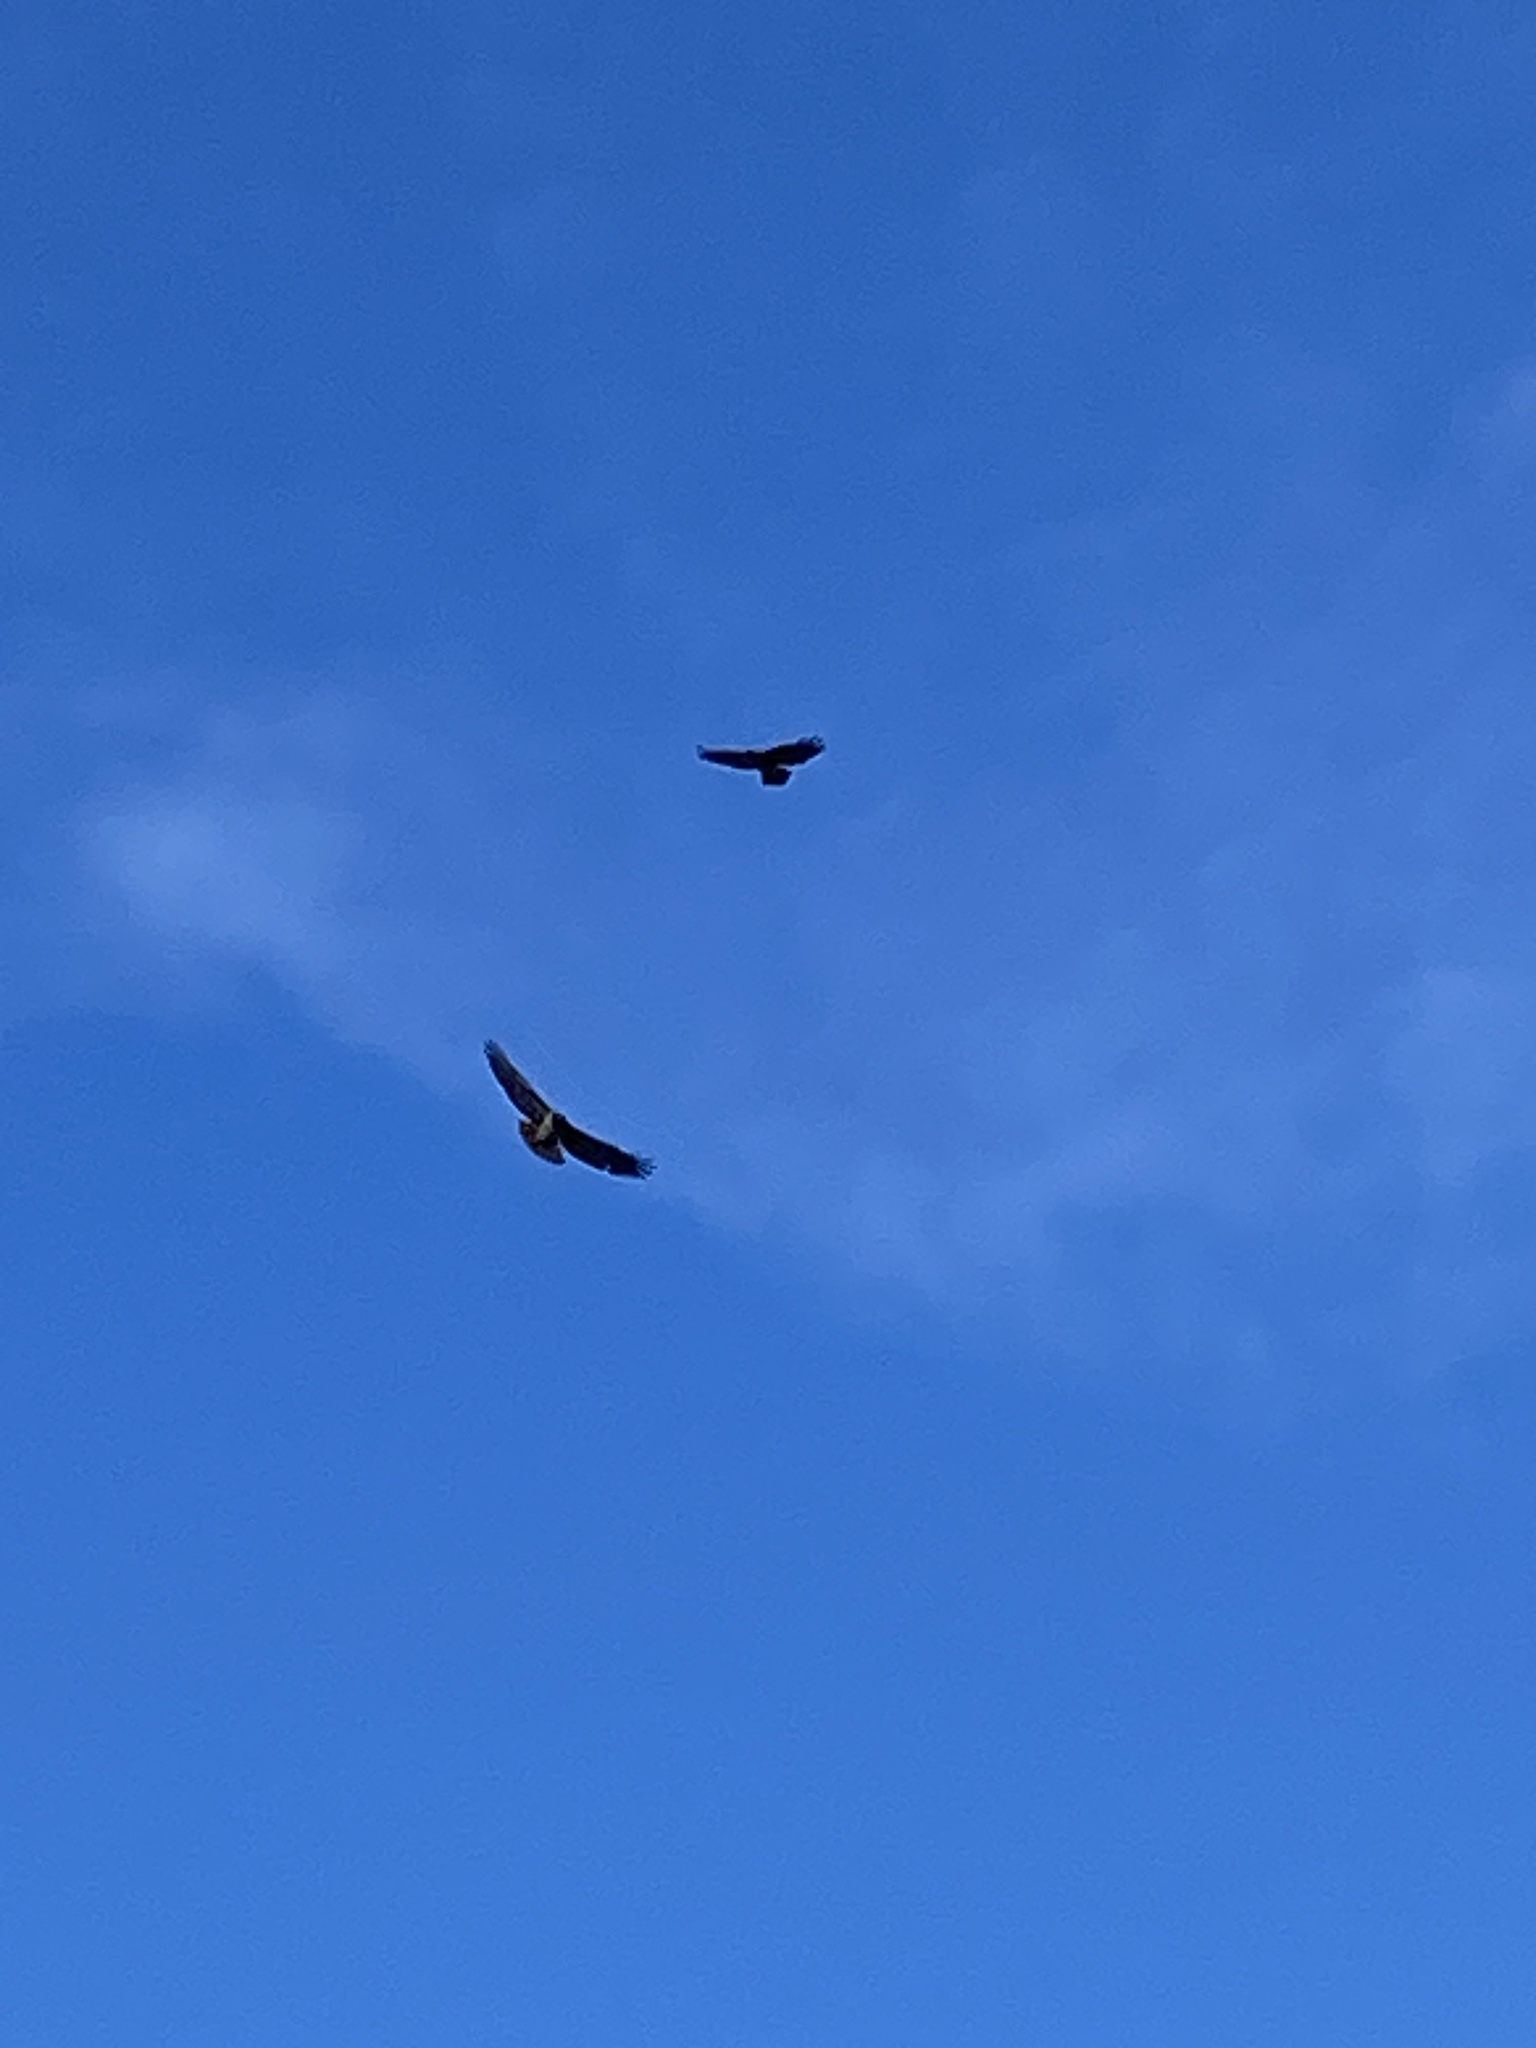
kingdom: Animalia
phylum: Chordata
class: Aves
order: Accipitriformes
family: Accipitridae
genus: Buteo
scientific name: Buteo jamaicensis
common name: Red-tailed hawk
